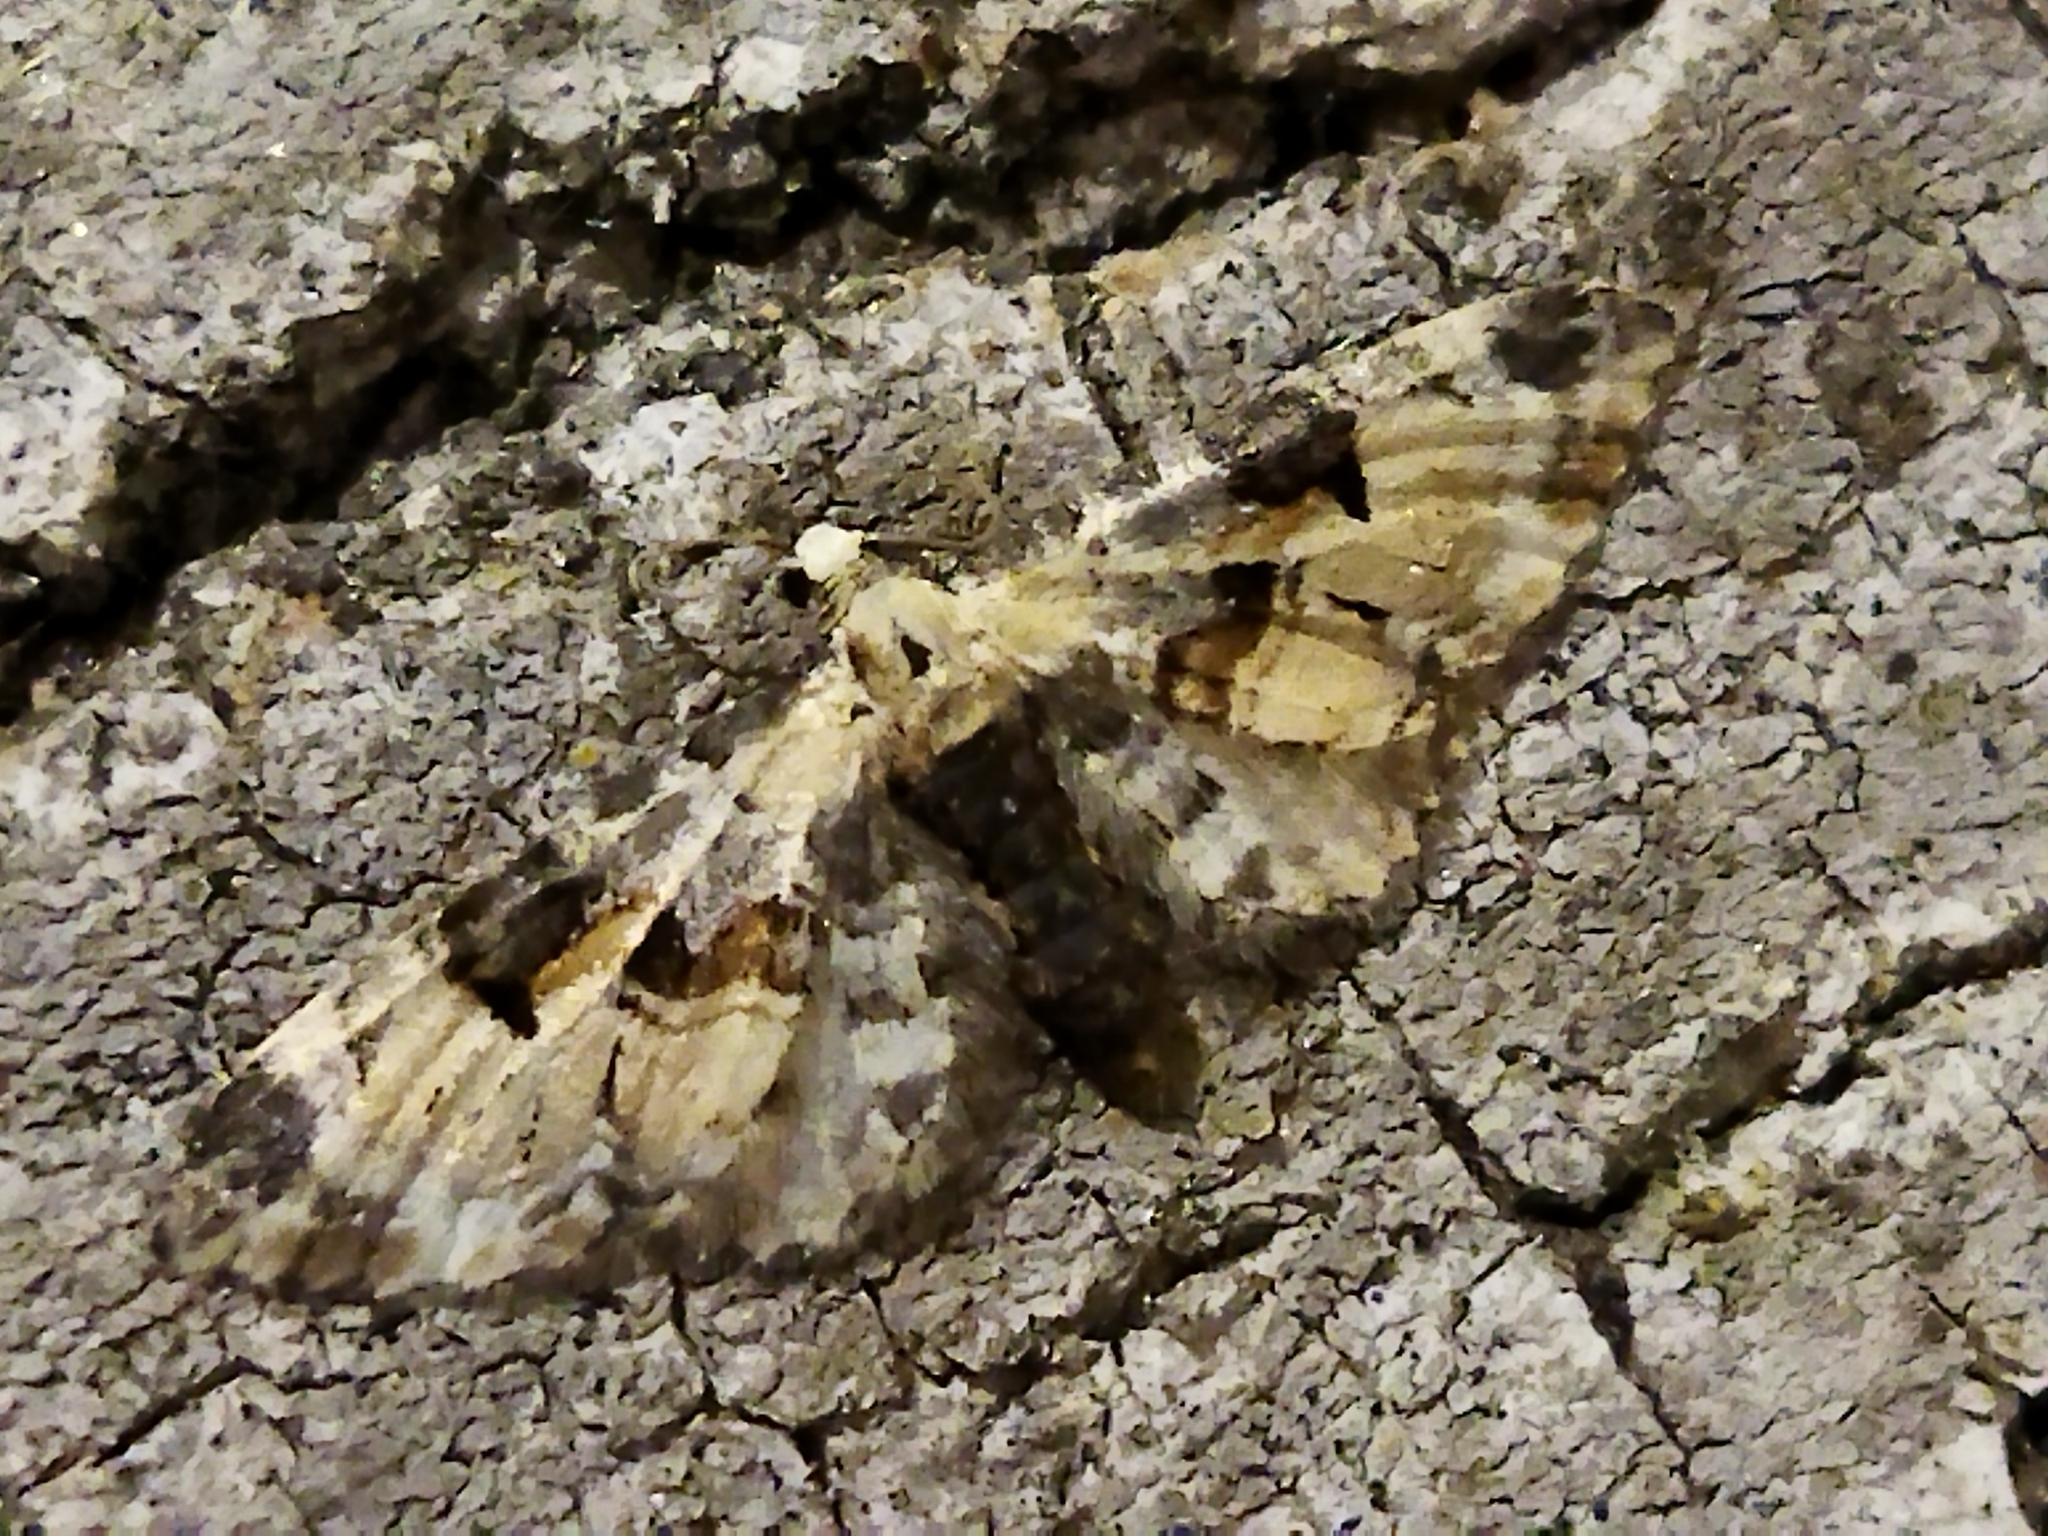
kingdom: Animalia
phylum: Arthropoda
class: Insecta
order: Lepidoptera
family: Geometridae
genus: Eupithecia
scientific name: Eupithecia extremata
